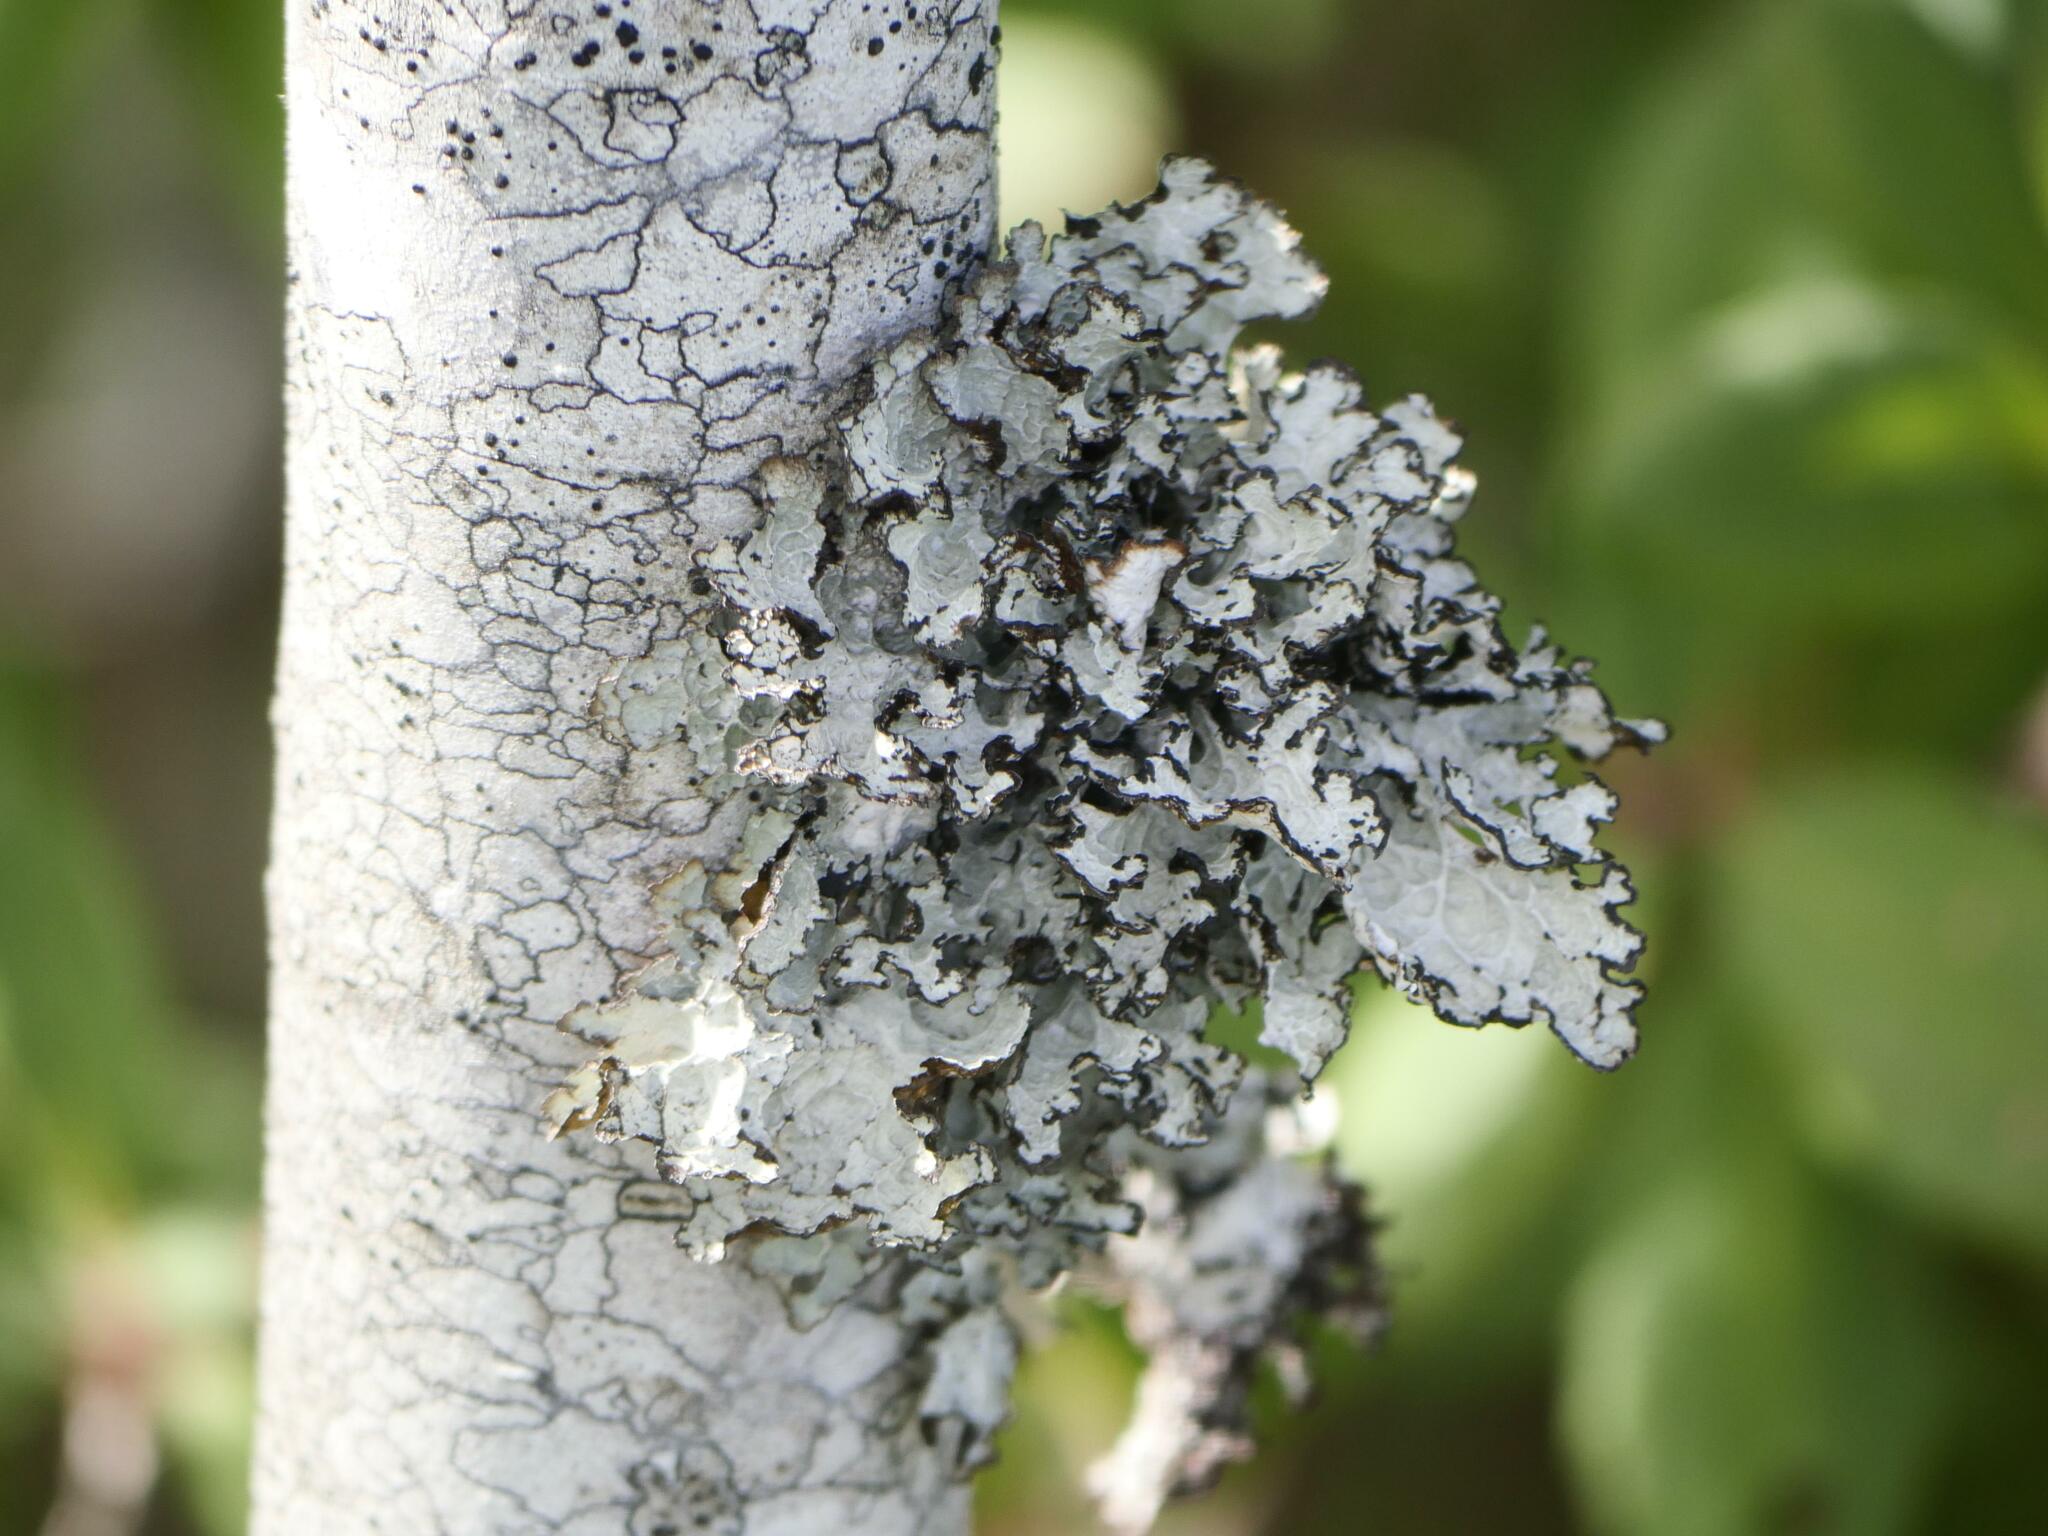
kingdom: Fungi
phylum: Ascomycota
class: Lecanoromycetes
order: Lecanorales
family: Parmeliaceae
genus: Platismatia
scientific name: Platismatia tuckermanii
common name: Crumpled rag lichen
